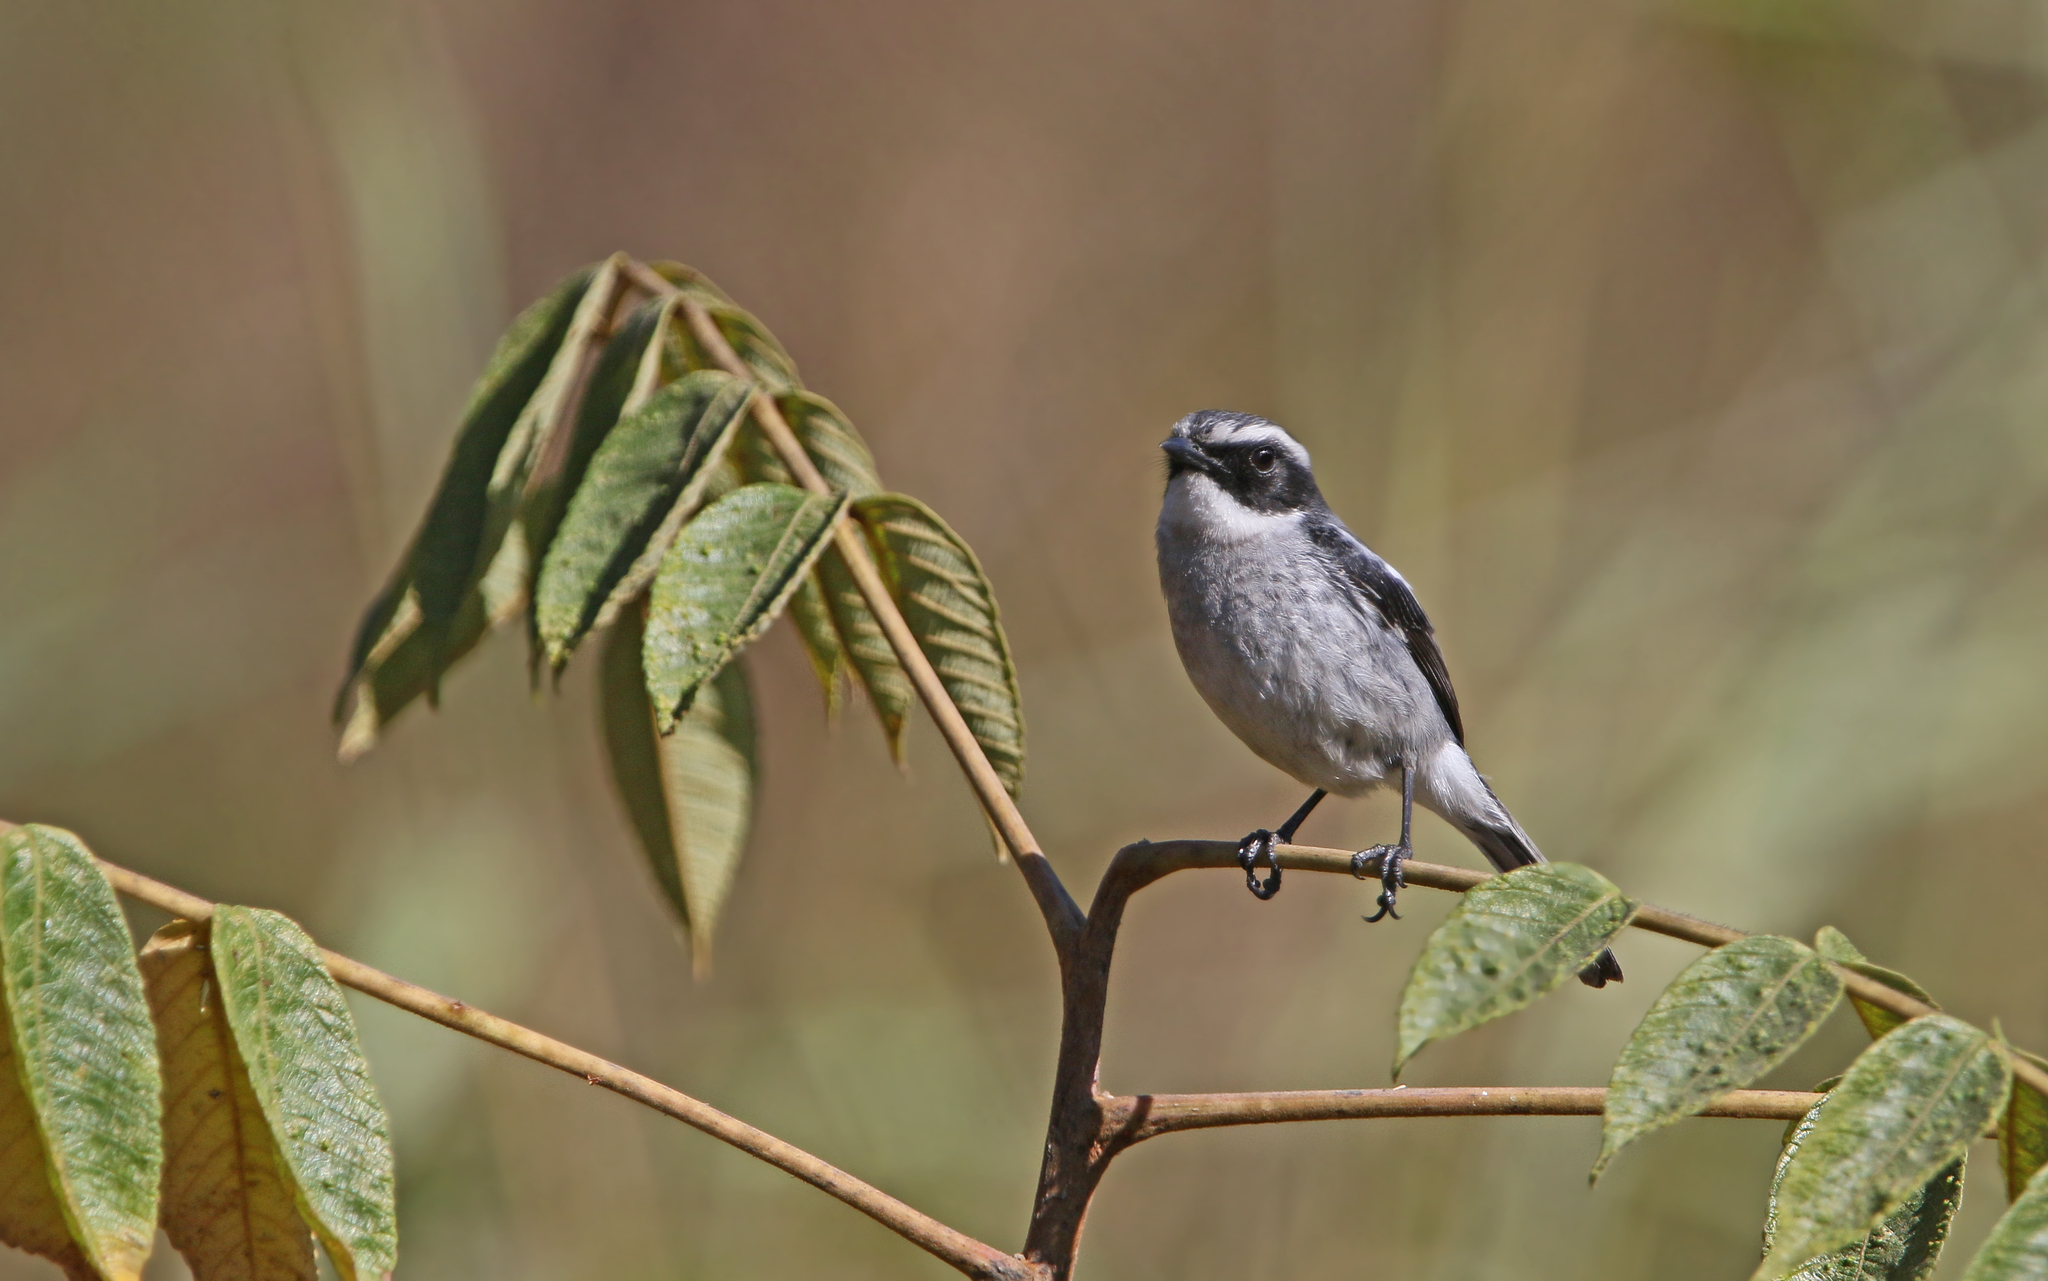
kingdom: Animalia
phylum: Chordata
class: Aves
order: Passeriformes
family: Muscicapidae
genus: Saxicola
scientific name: Saxicola ferreus
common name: Grey bush chat
